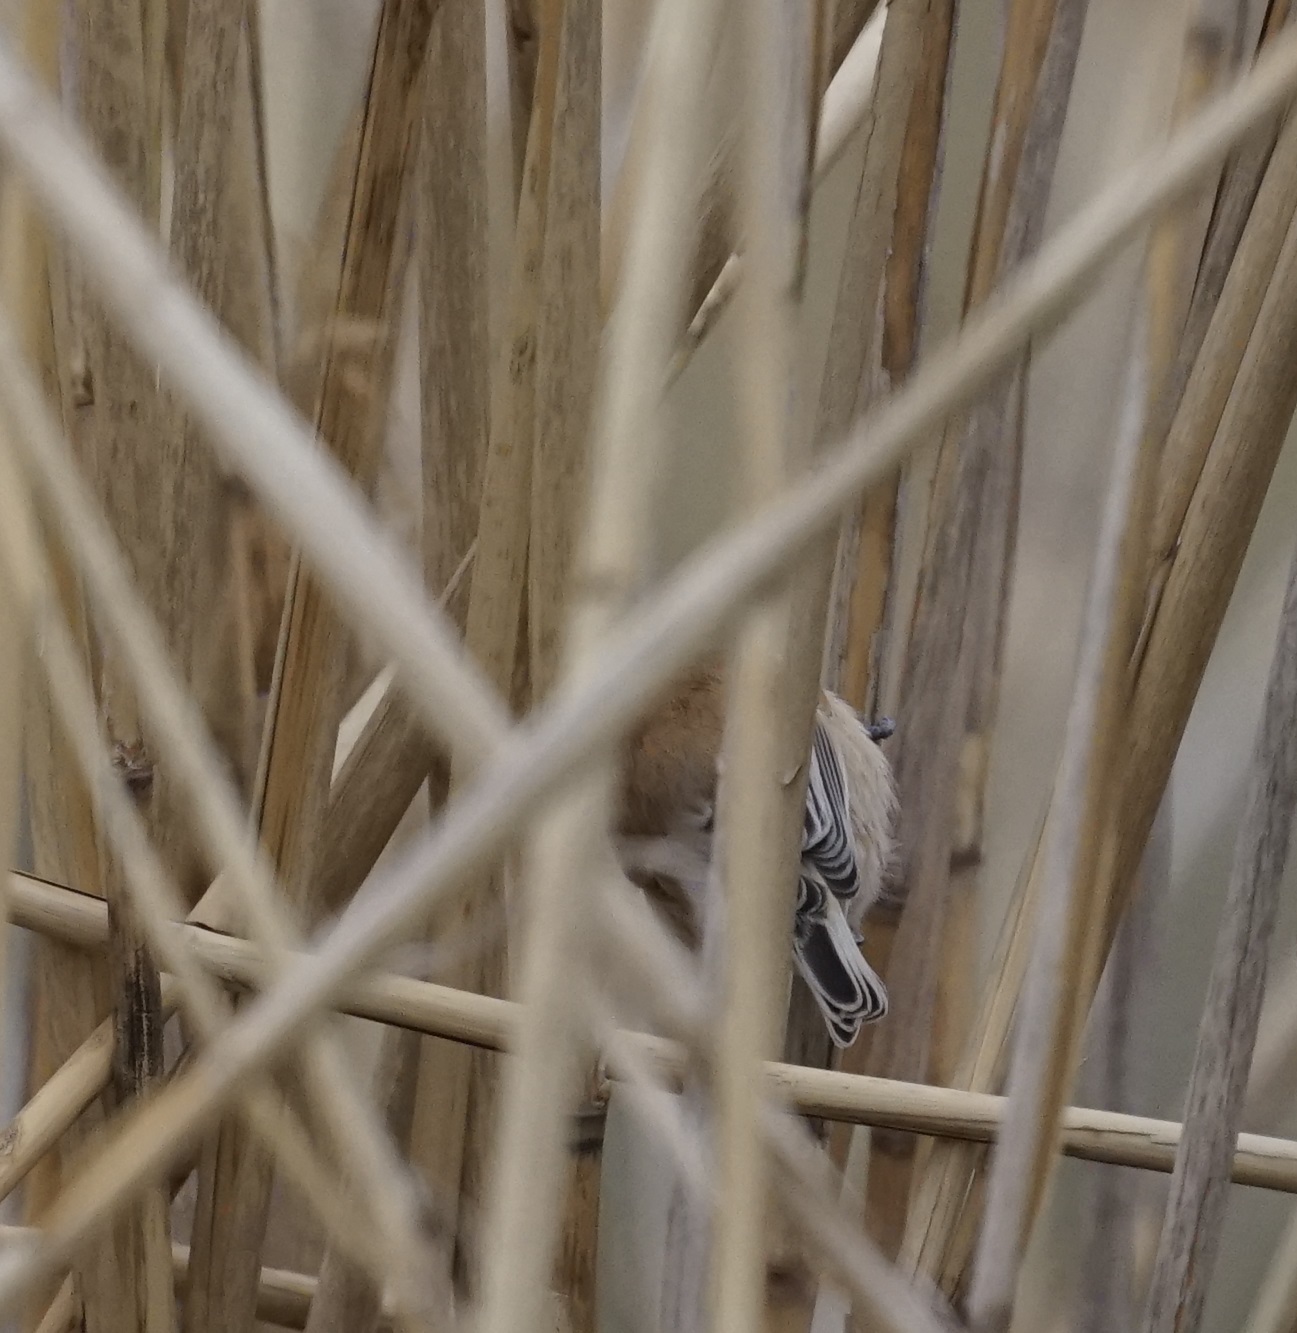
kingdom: Animalia
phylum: Chordata
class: Aves
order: Passeriformes
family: Remizidae
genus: Remiz
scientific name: Remiz pendulinus
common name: Eurasian penduline tit
